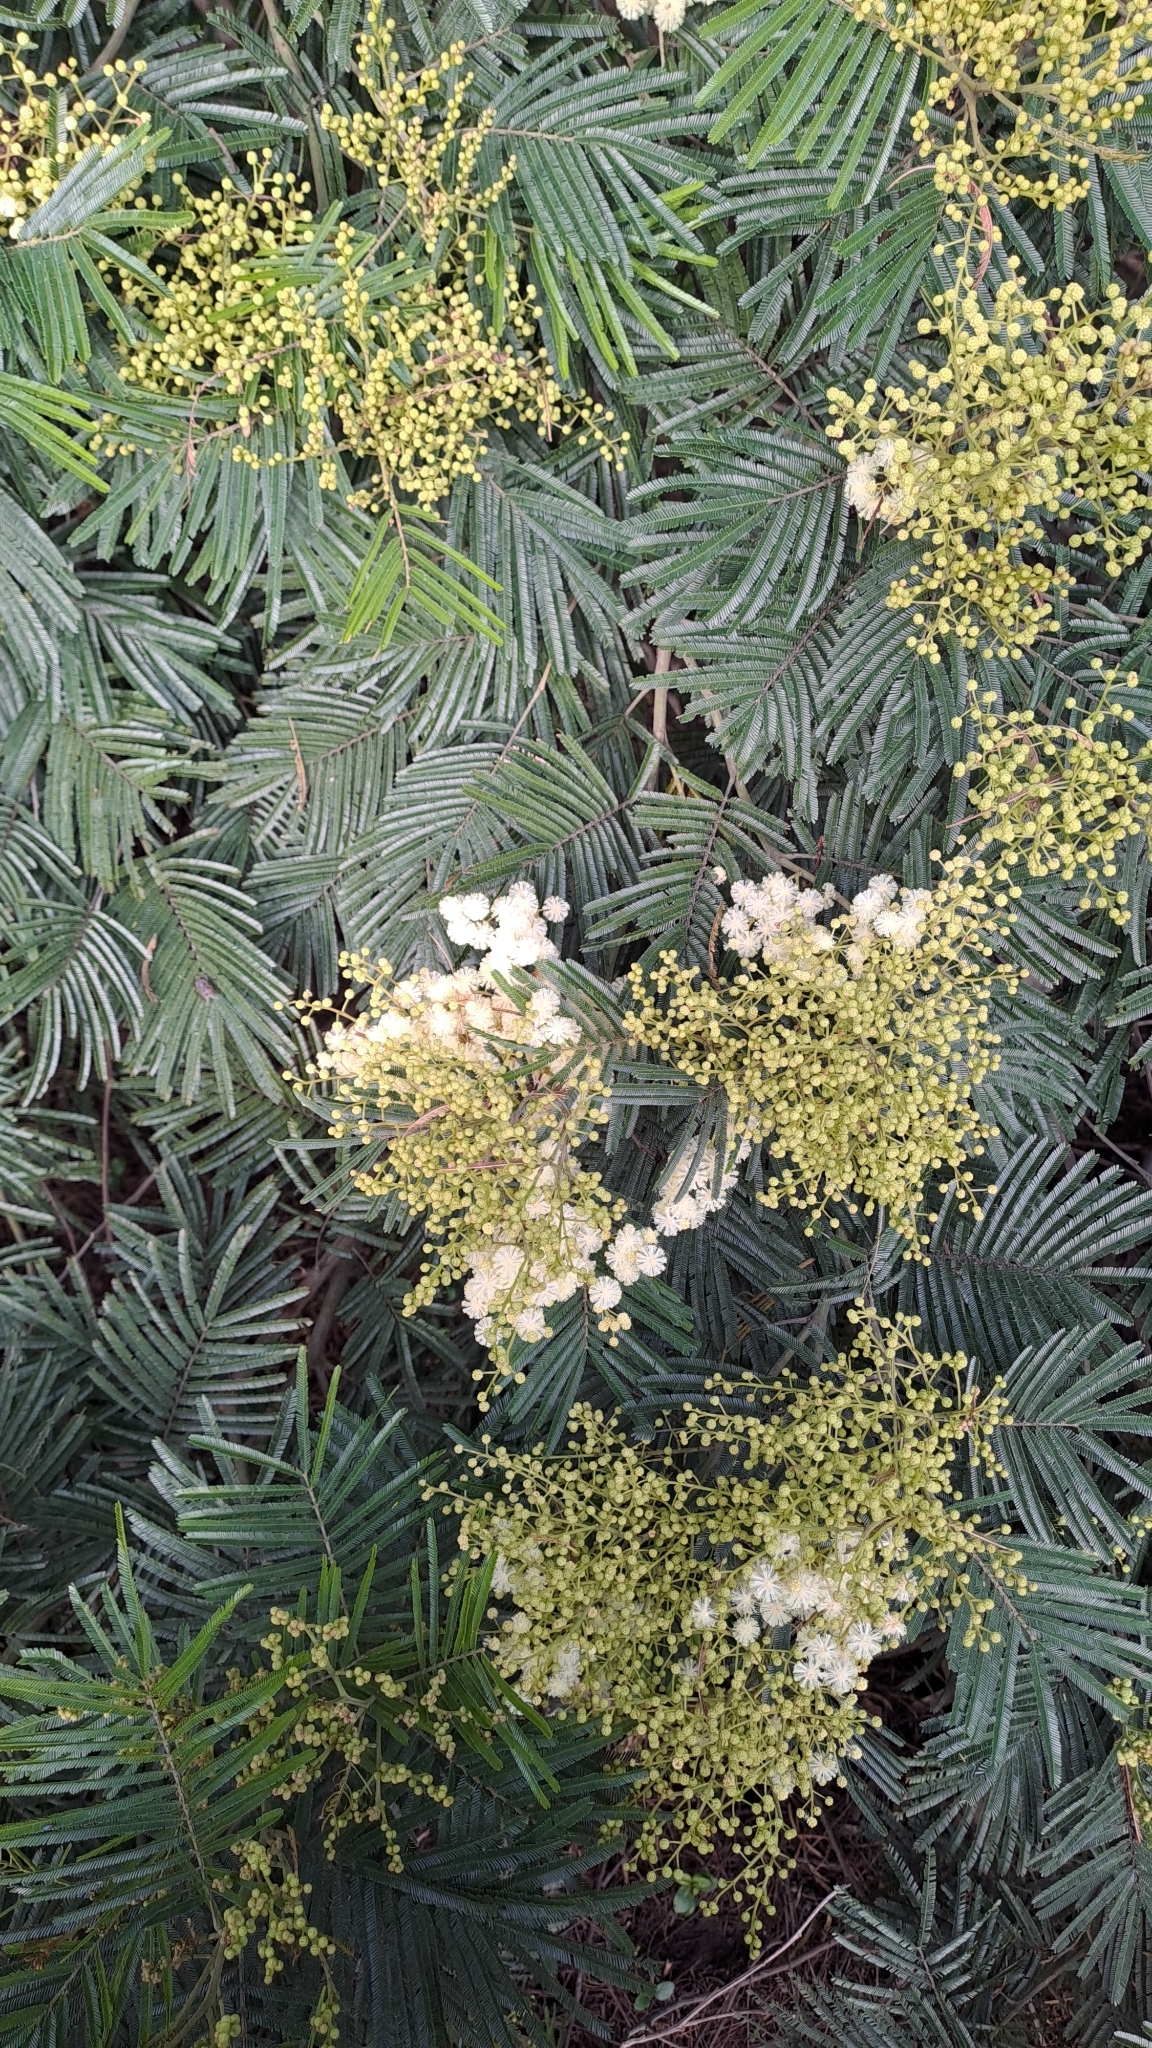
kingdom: Plantae
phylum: Tracheophyta
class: Magnoliopsida
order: Fabales
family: Fabaceae
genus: Acacia
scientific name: Acacia mearnsii
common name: Black wattle
